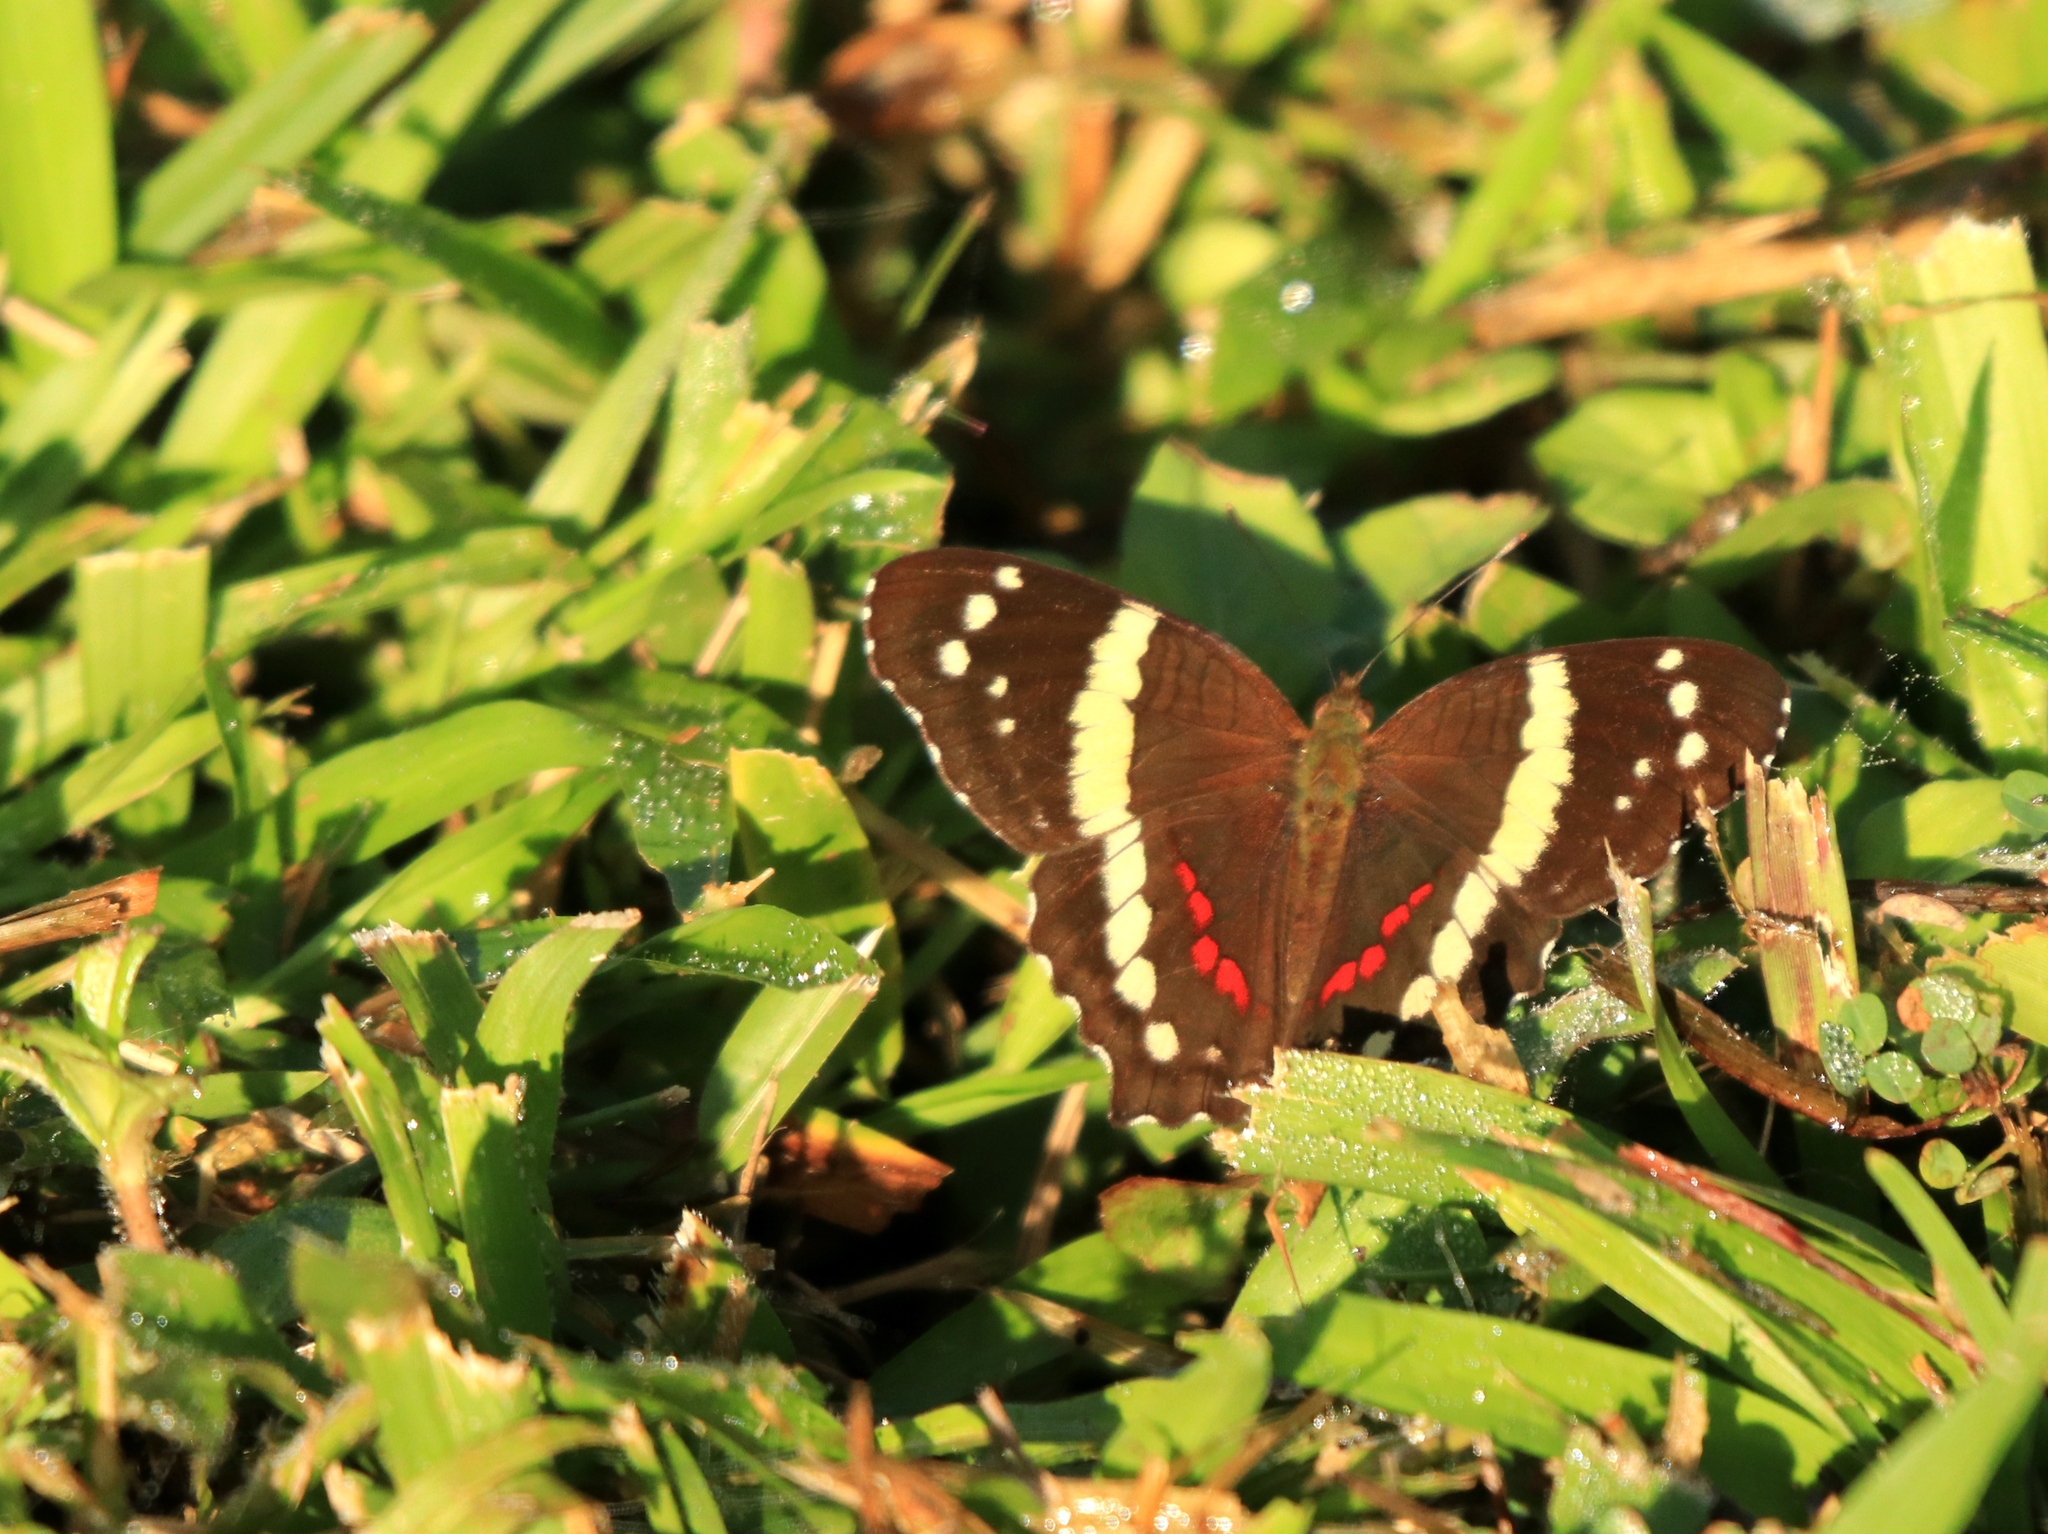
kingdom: Animalia
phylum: Arthropoda
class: Insecta
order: Lepidoptera
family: Nymphalidae
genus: Anartia
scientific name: Anartia fatima
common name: Banded peacock
